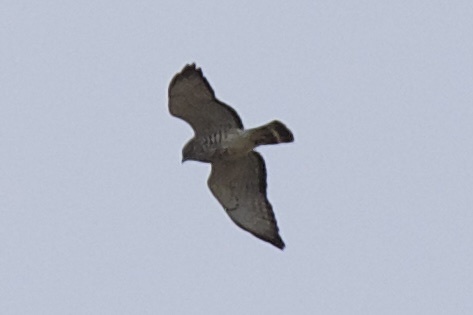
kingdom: Animalia
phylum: Chordata
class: Aves
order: Accipitriformes
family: Accipitridae
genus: Buteo
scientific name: Buteo platypterus
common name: Broad-winged hawk
